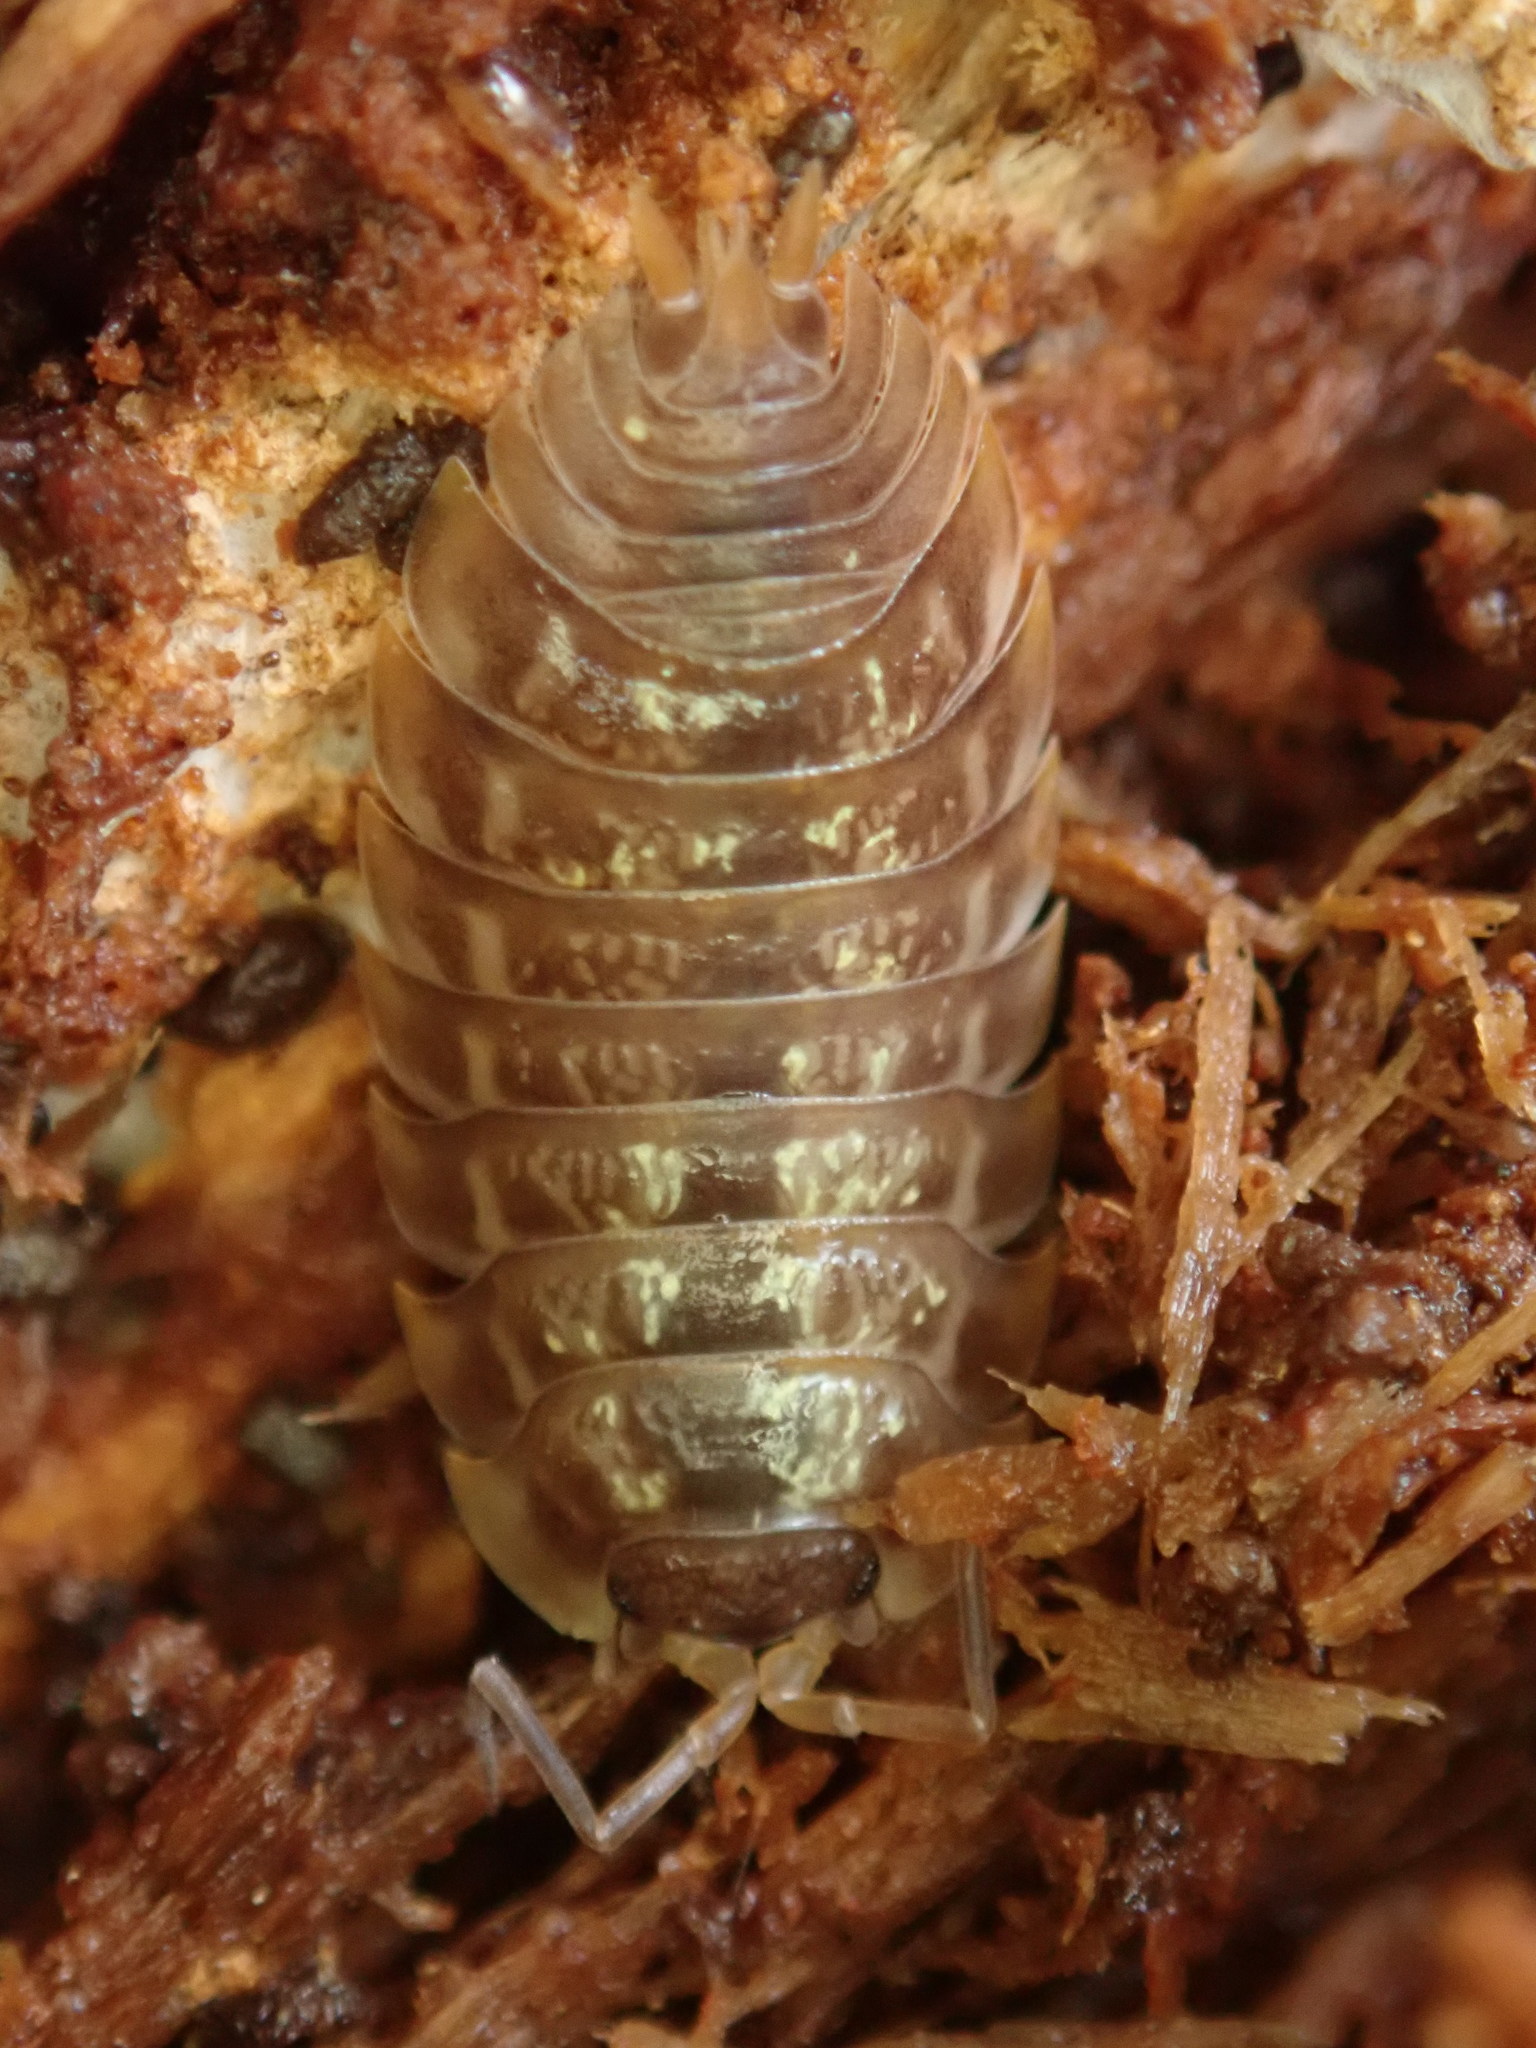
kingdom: Animalia
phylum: Arthropoda
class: Malacostraca
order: Isopoda
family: Oniscidae
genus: Oniscus
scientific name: Oniscus asellus
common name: Common shiny woodlouse
